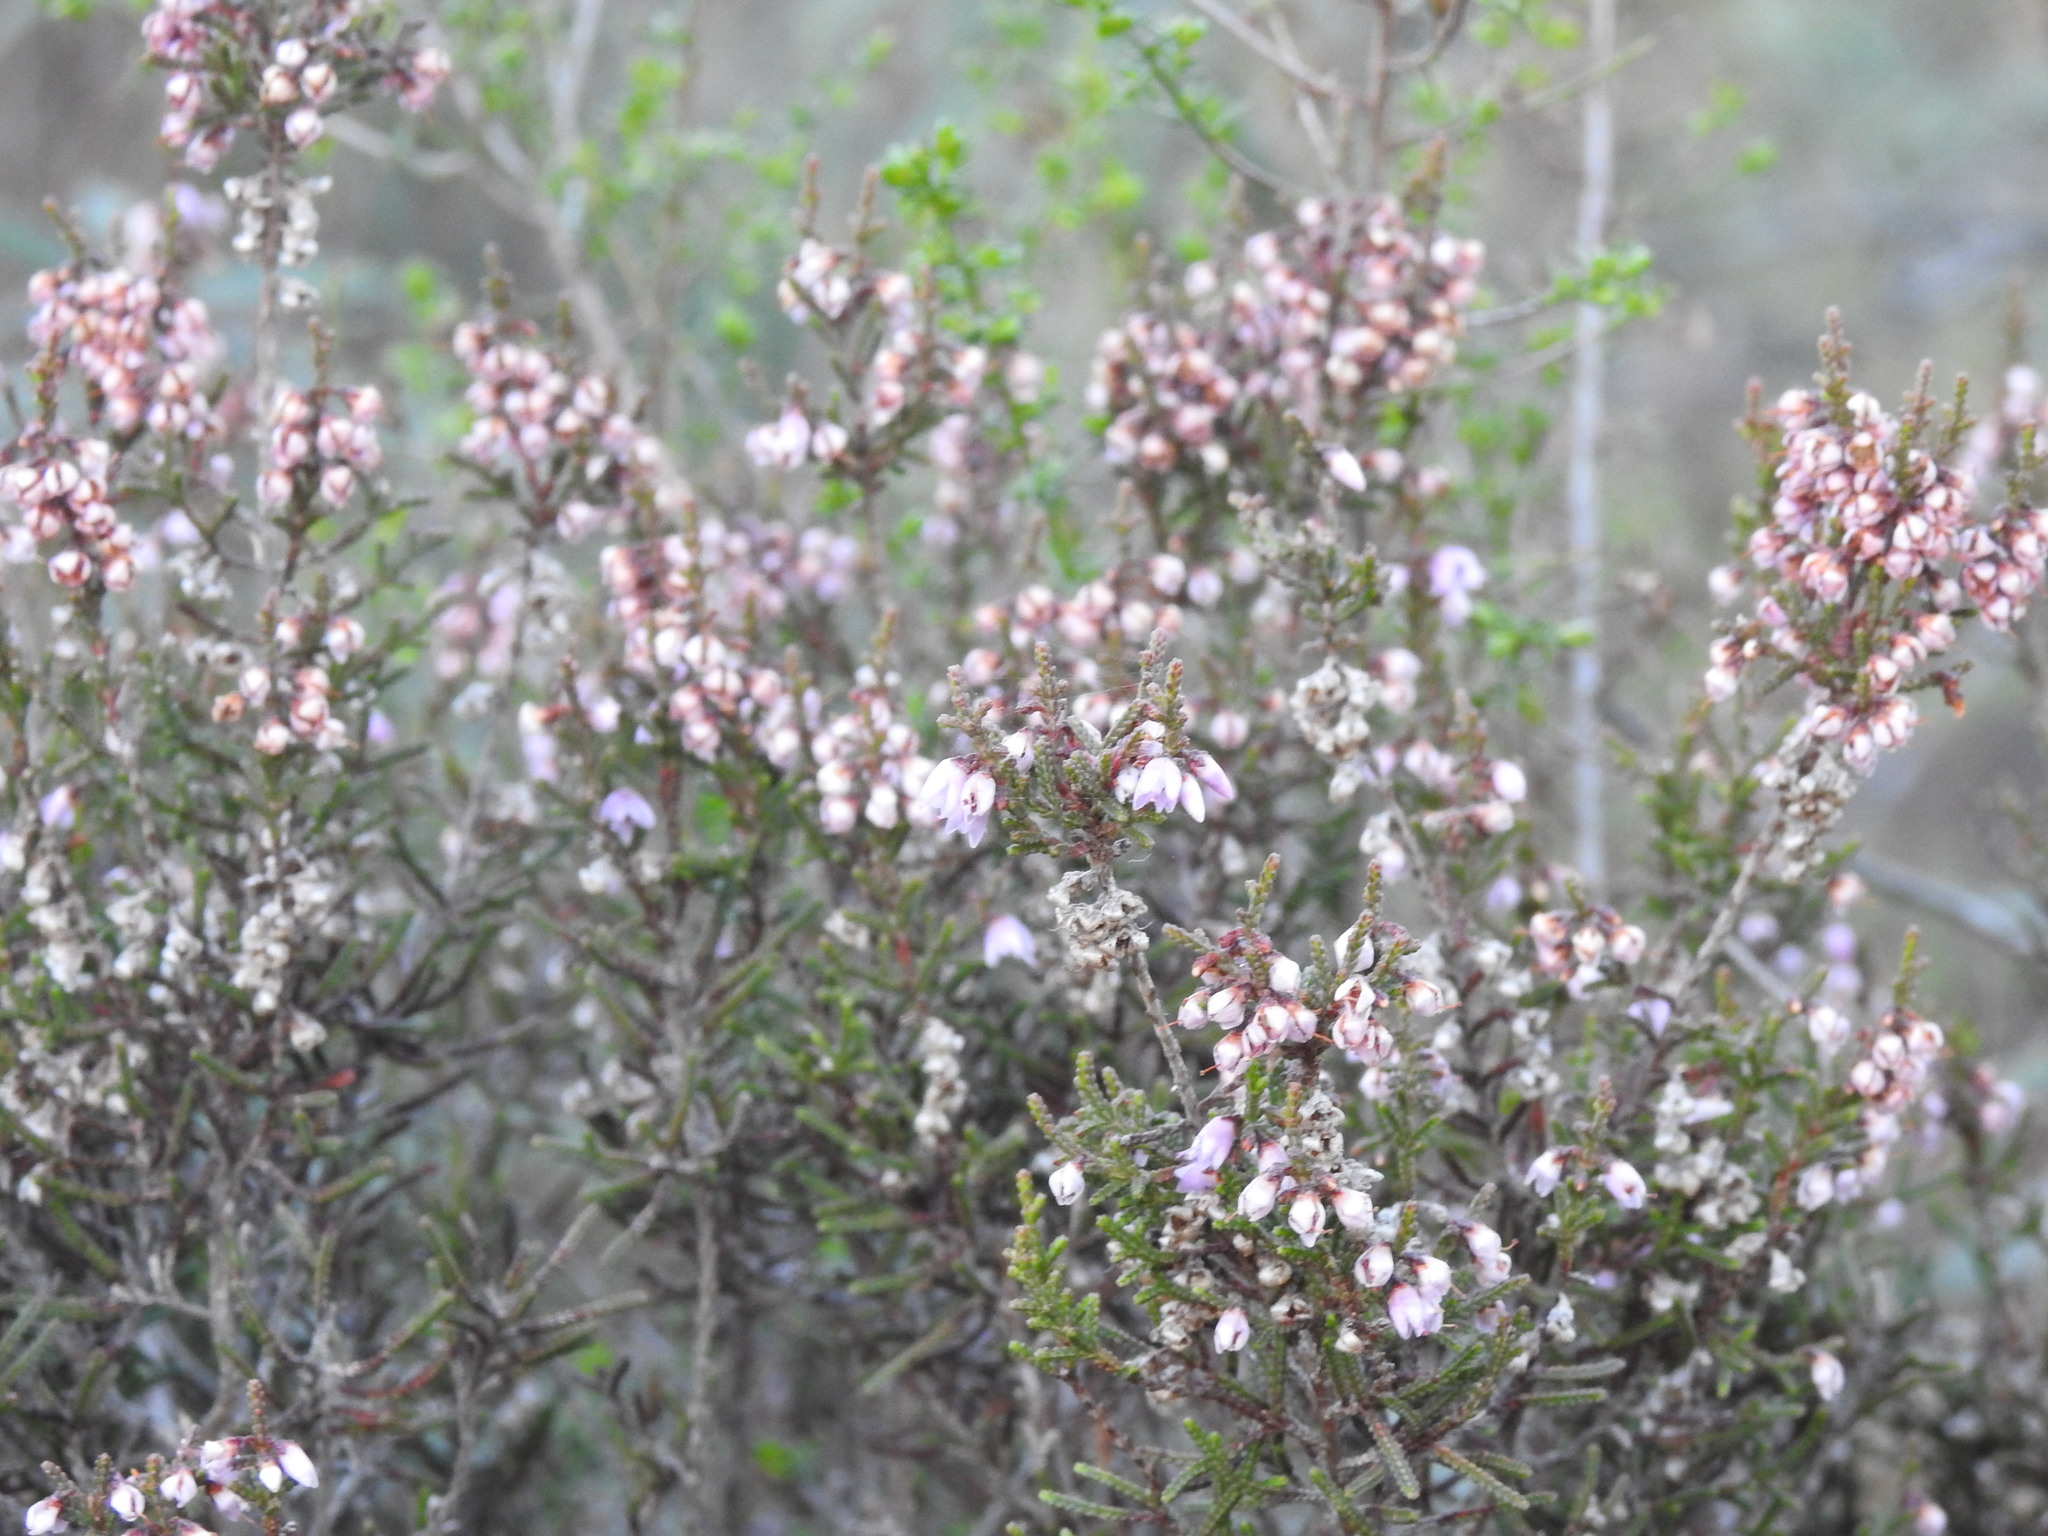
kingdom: Plantae
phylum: Tracheophyta
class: Magnoliopsida
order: Ericales
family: Ericaceae
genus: Calluna
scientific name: Calluna vulgaris
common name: Heather
